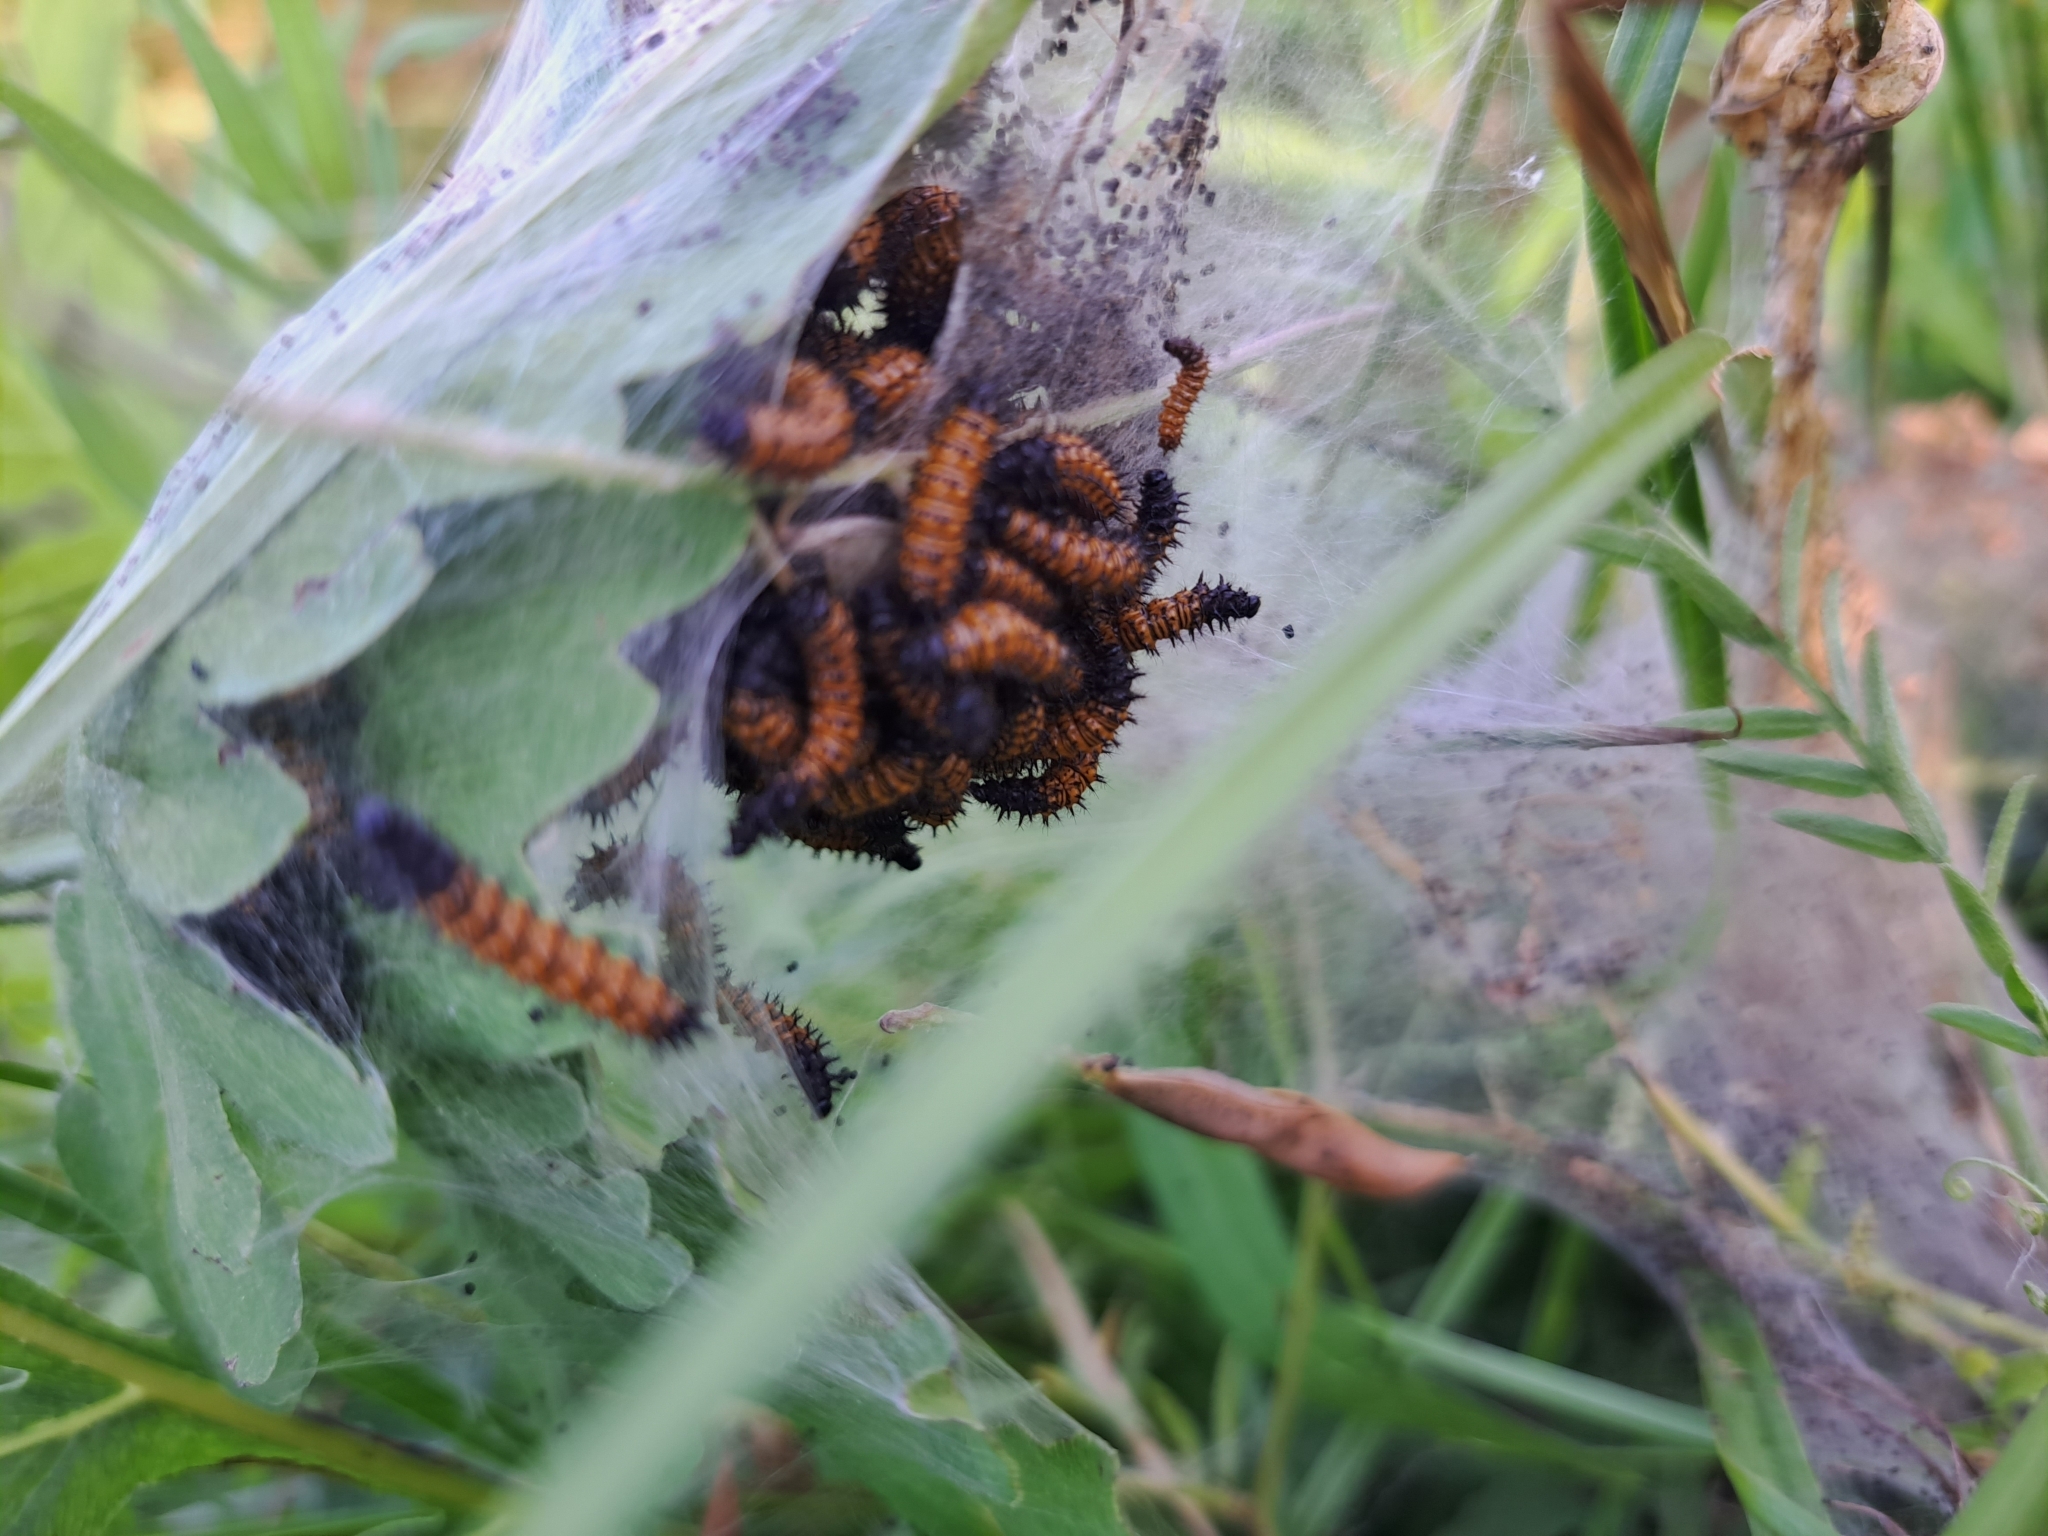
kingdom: Animalia
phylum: Arthropoda
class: Insecta
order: Lepidoptera
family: Nymphalidae
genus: Euphydryas
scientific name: Euphydryas phaeton
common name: Baltimore checkerspot
